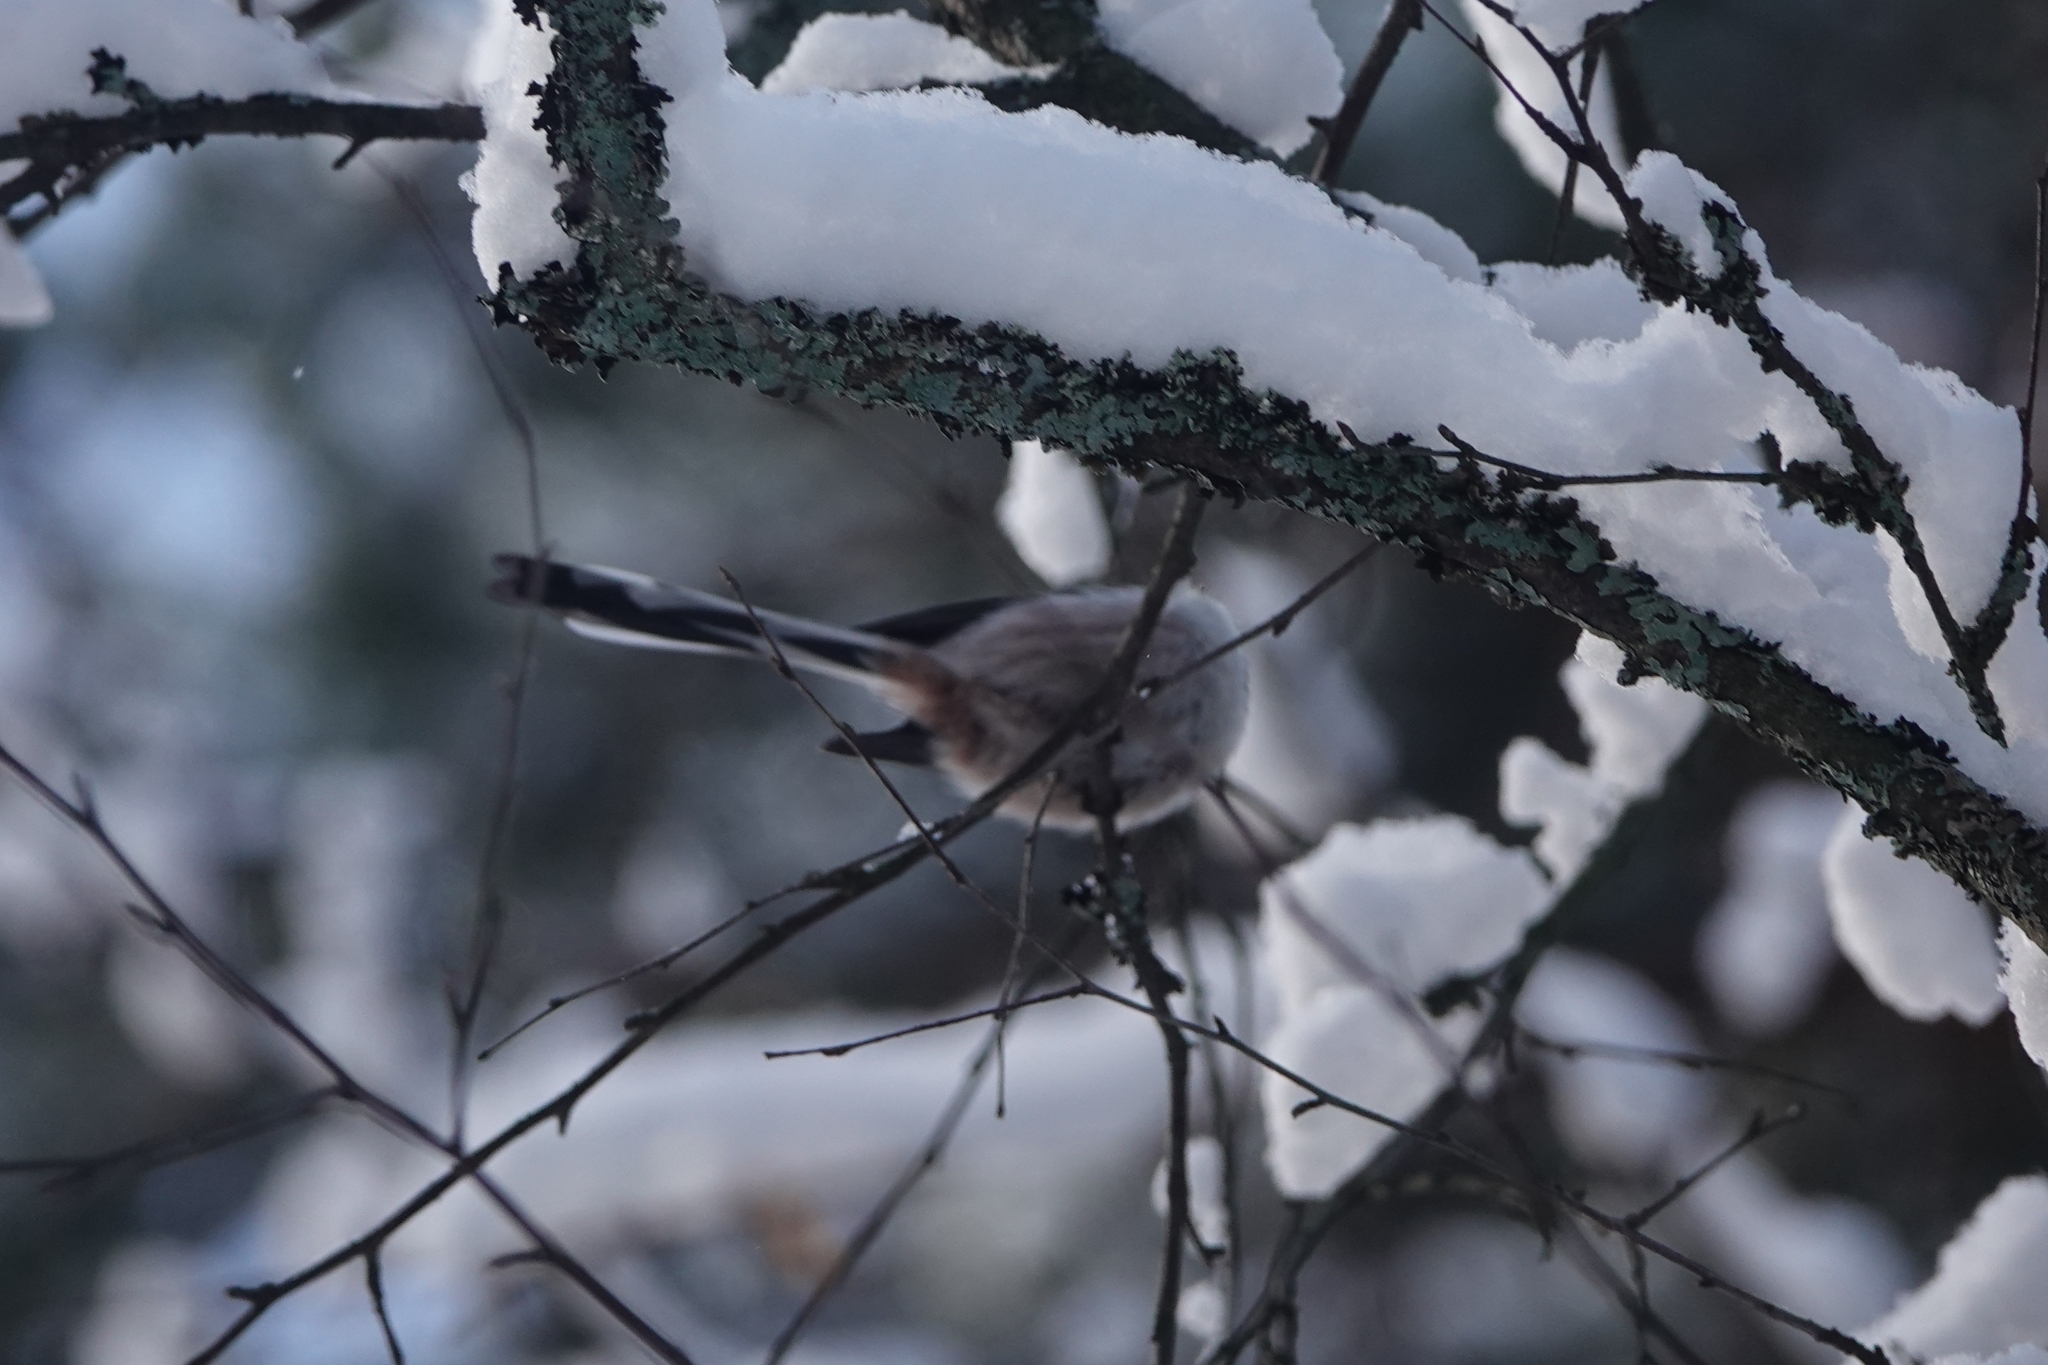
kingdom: Animalia
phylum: Chordata
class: Aves
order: Passeriformes
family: Aegithalidae
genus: Aegithalos
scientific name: Aegithalos caudatus
